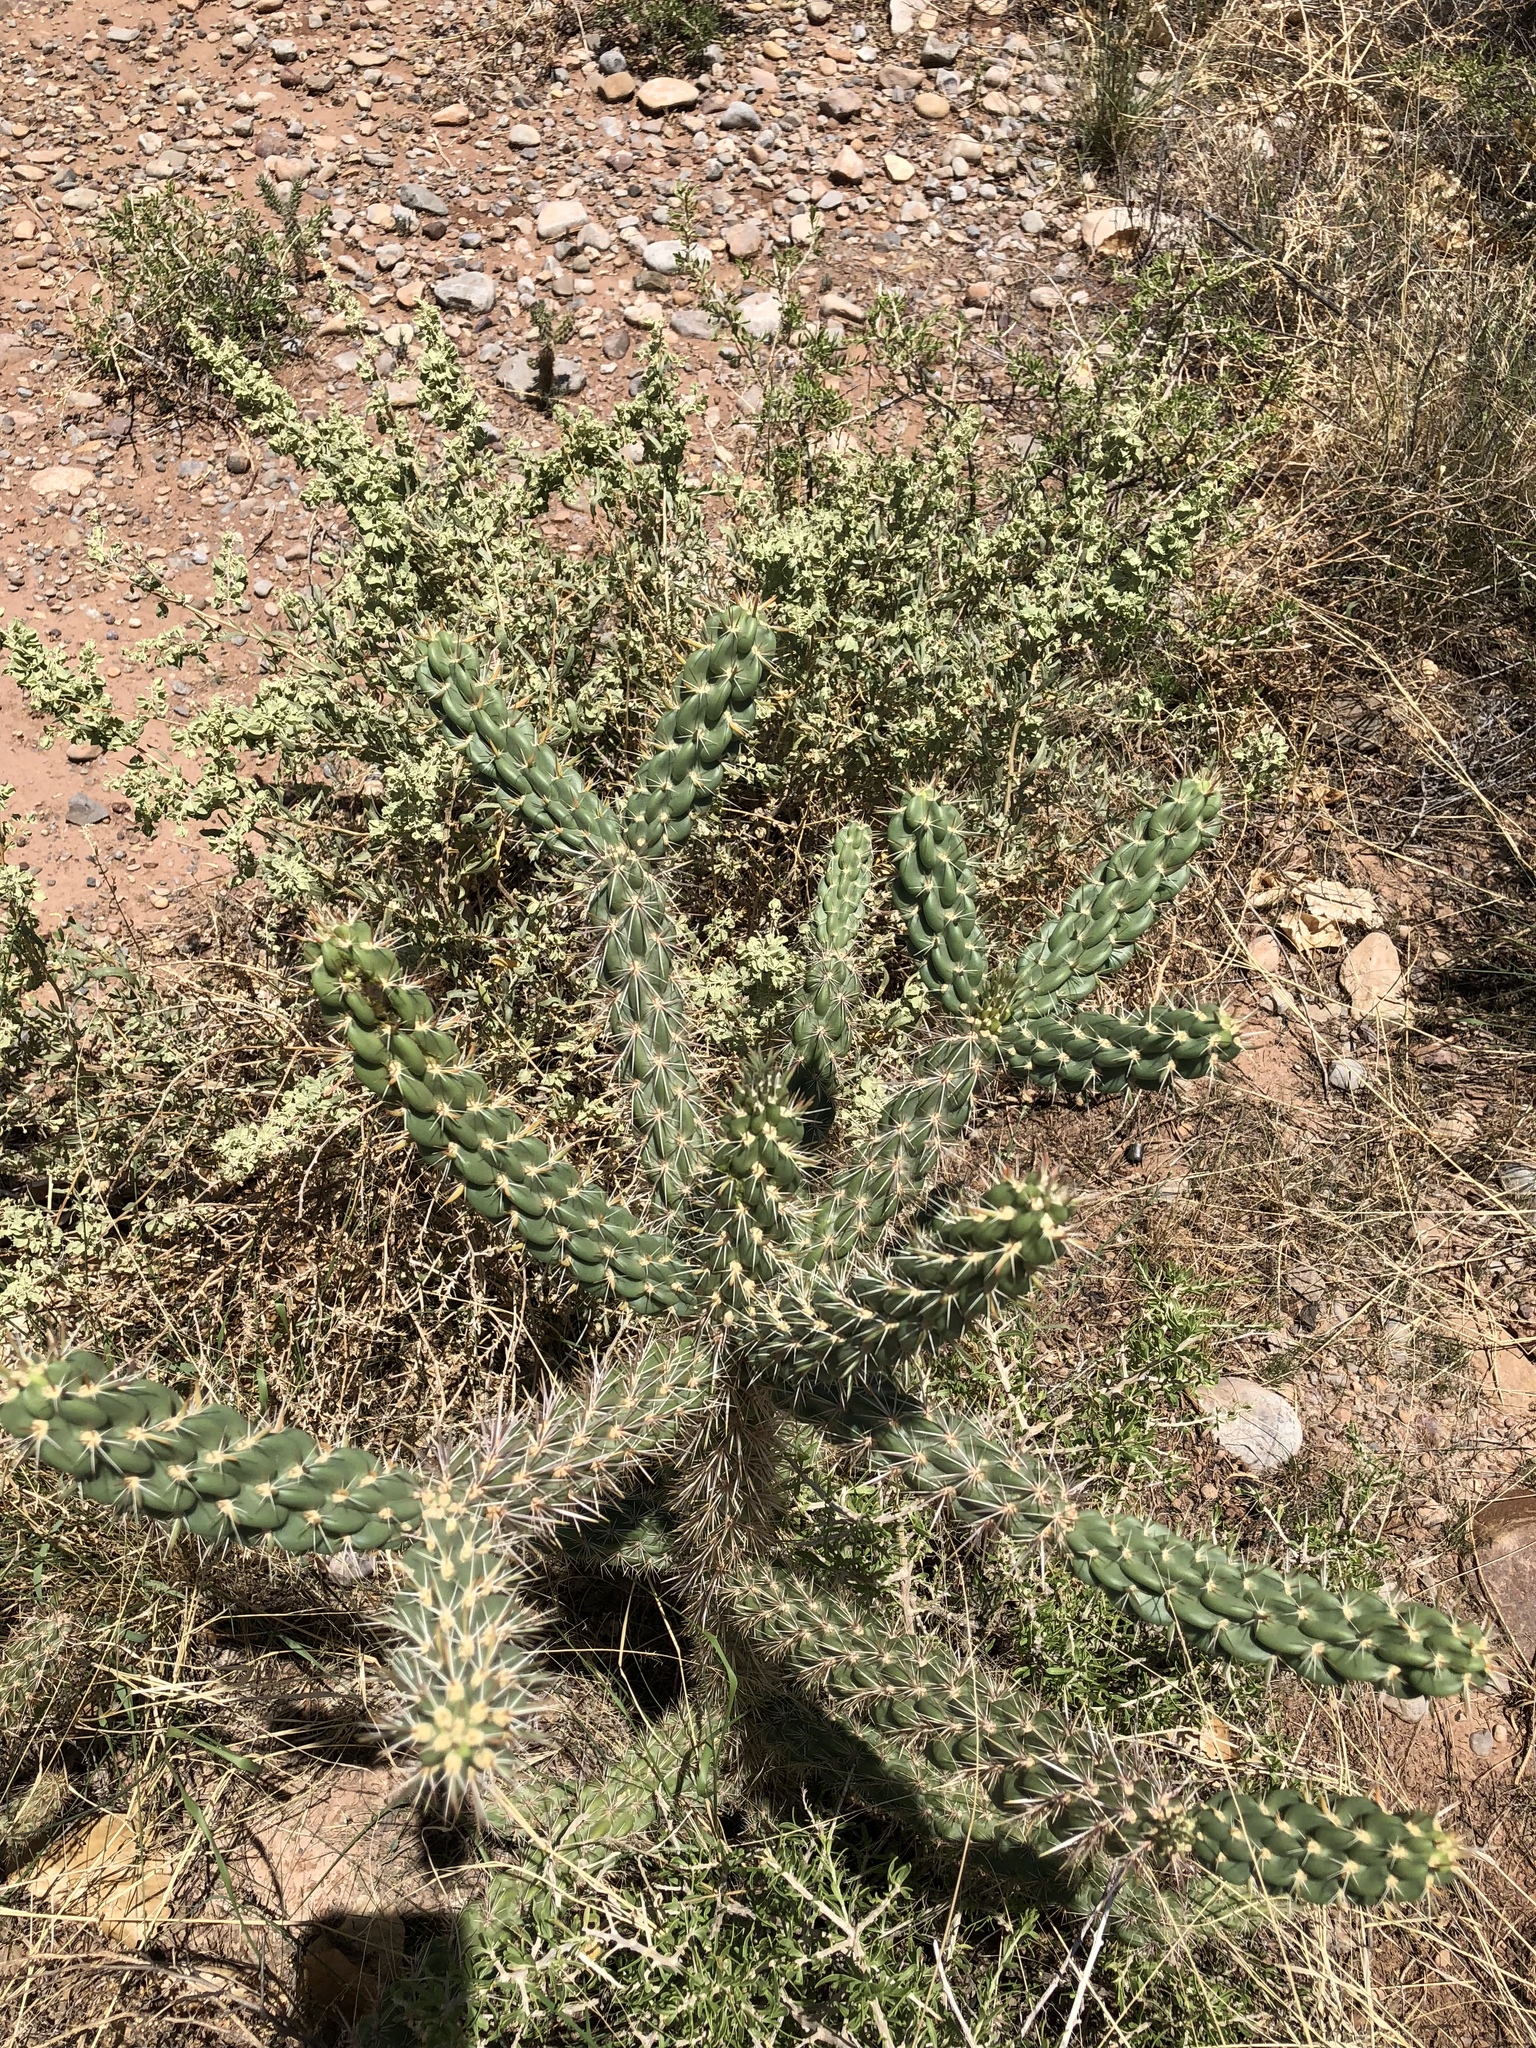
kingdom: Plantae
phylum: Tracheophyta
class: Magnoliopsida
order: Caryophyllales
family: Cactaceae
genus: Cylindropuntia
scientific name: Cylindropuntia imbricata
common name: Candelabrum cactus
